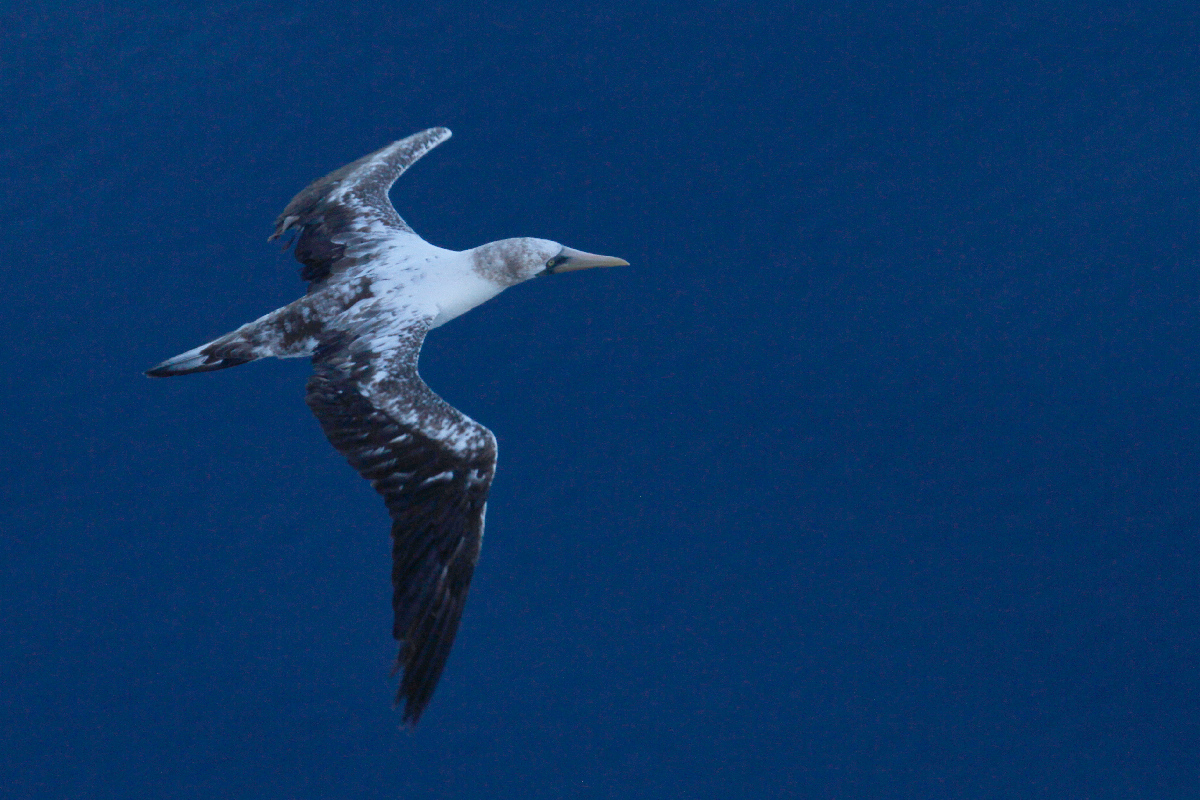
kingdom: Animalia
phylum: Chordata
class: Aves
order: Suliformes
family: Sulidae
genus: Sula
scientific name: Sula granti
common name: Nazca booby
